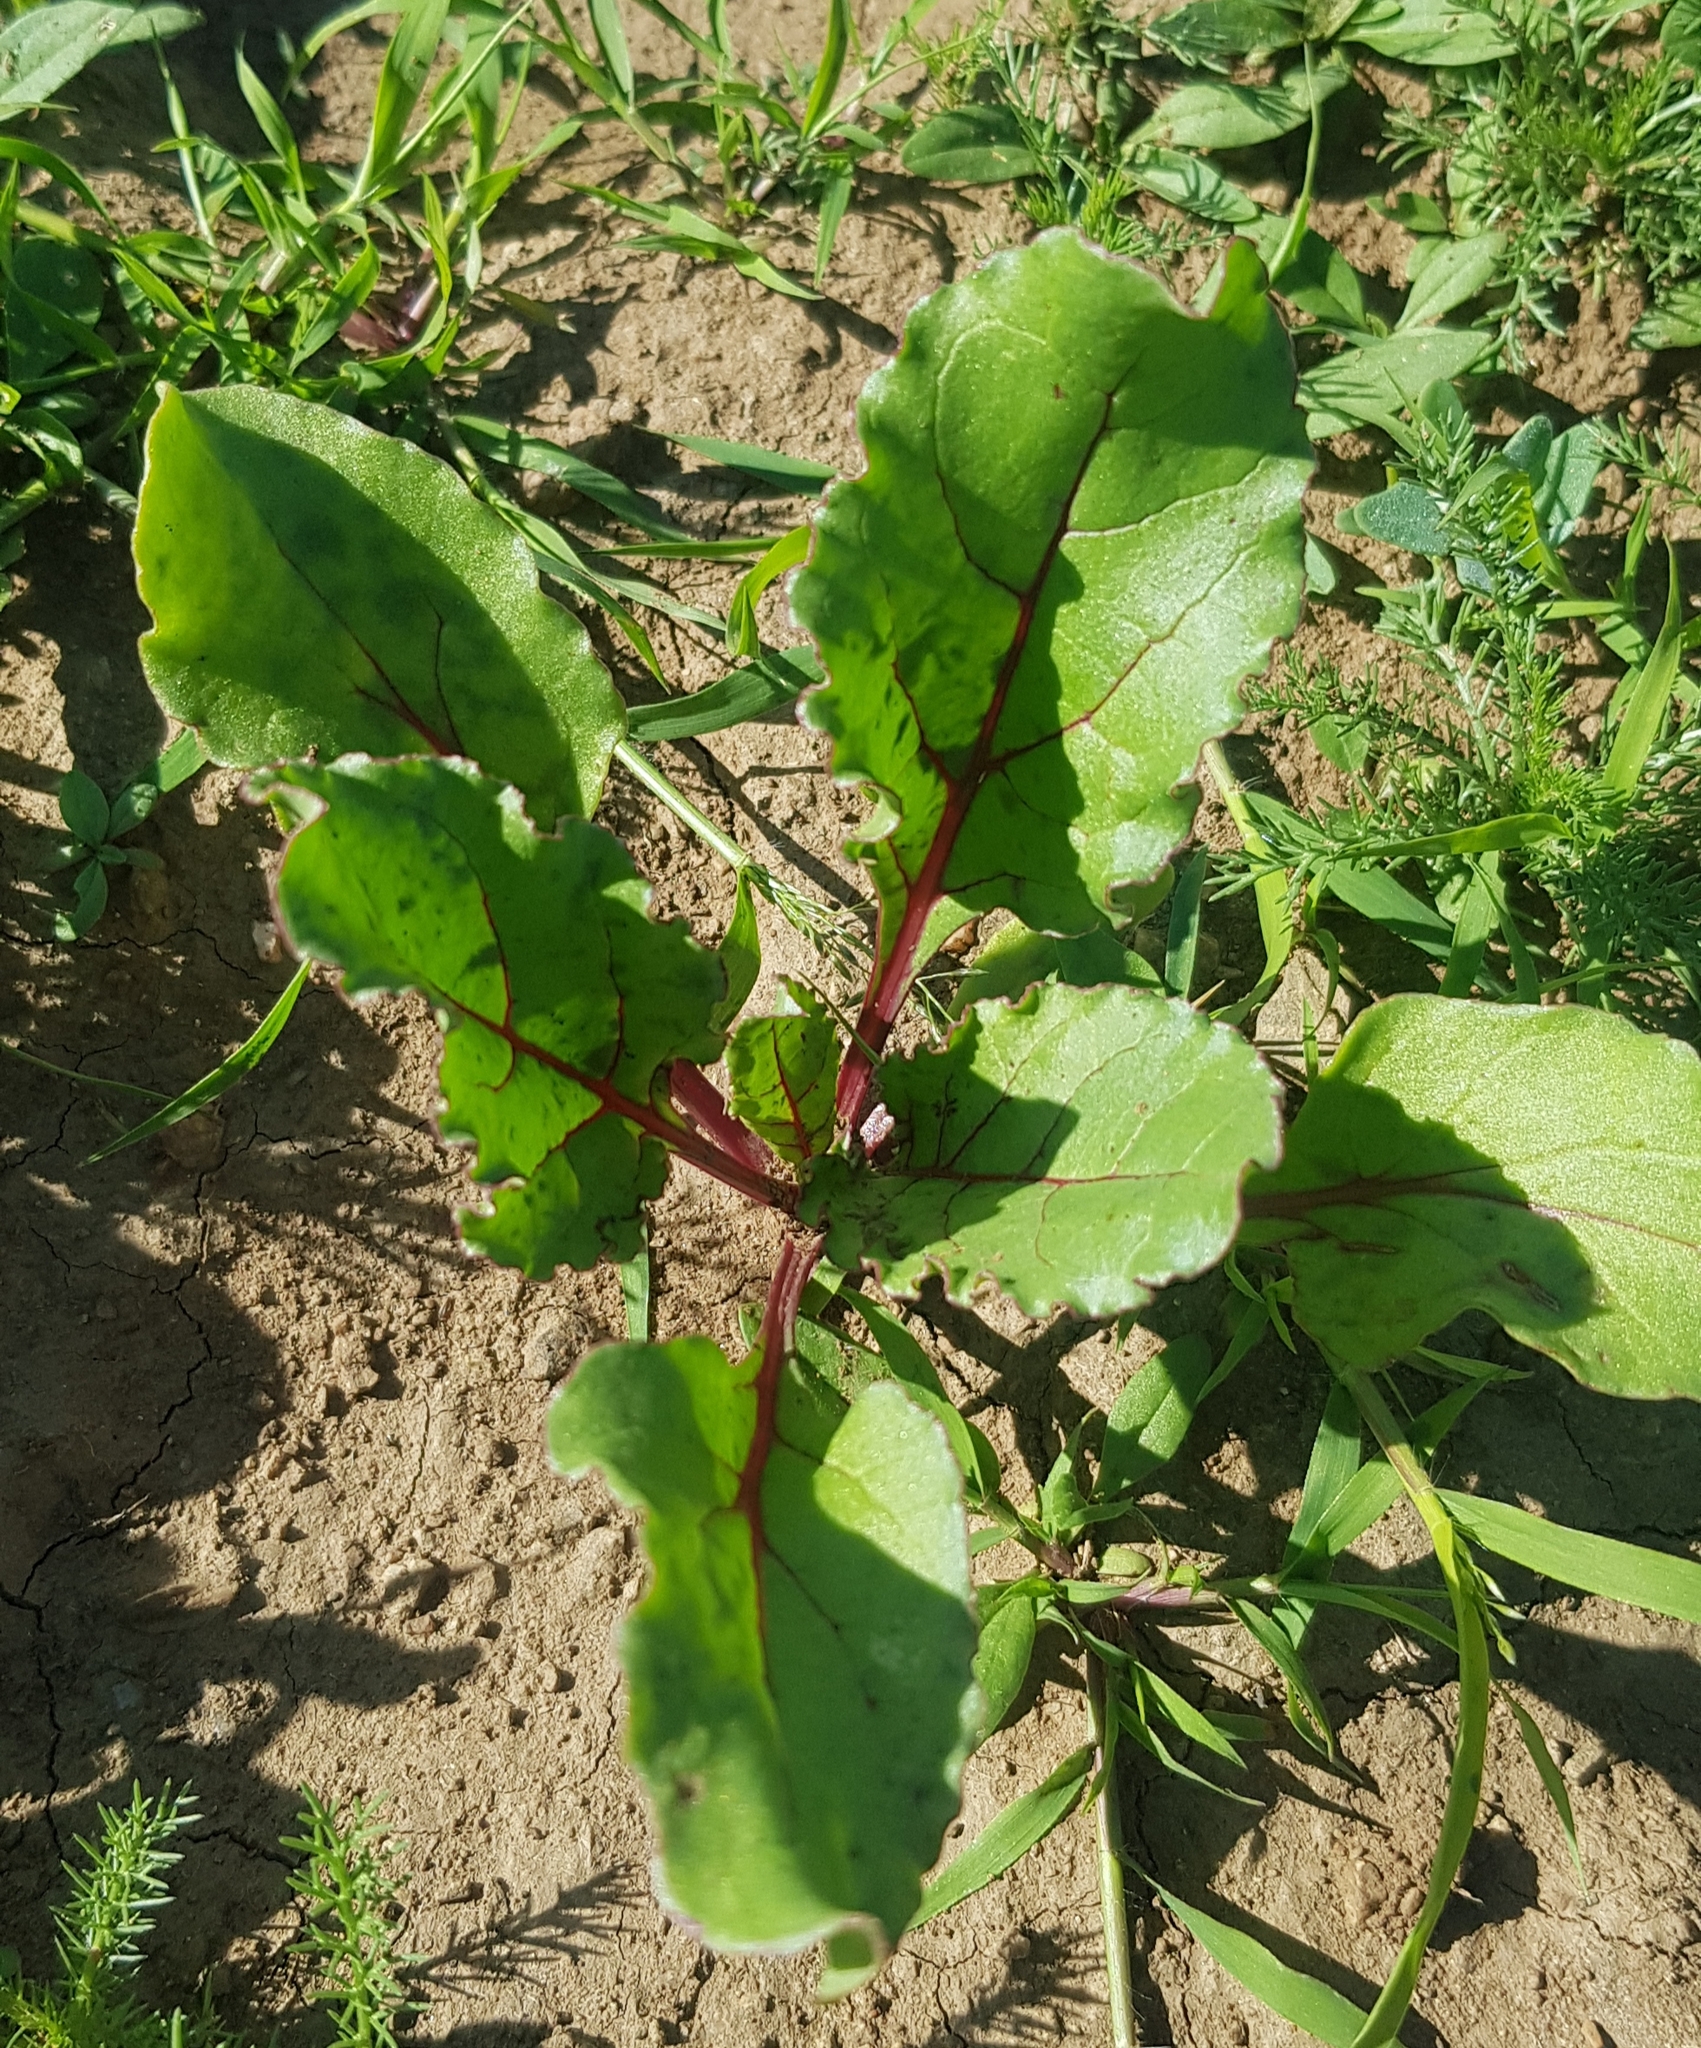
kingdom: Plantae
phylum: Tracheophyta
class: Magnoliopsida
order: Caryophyllales
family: Amaranthaceae
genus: Beta
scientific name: Beta vulgaris
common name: Beet
